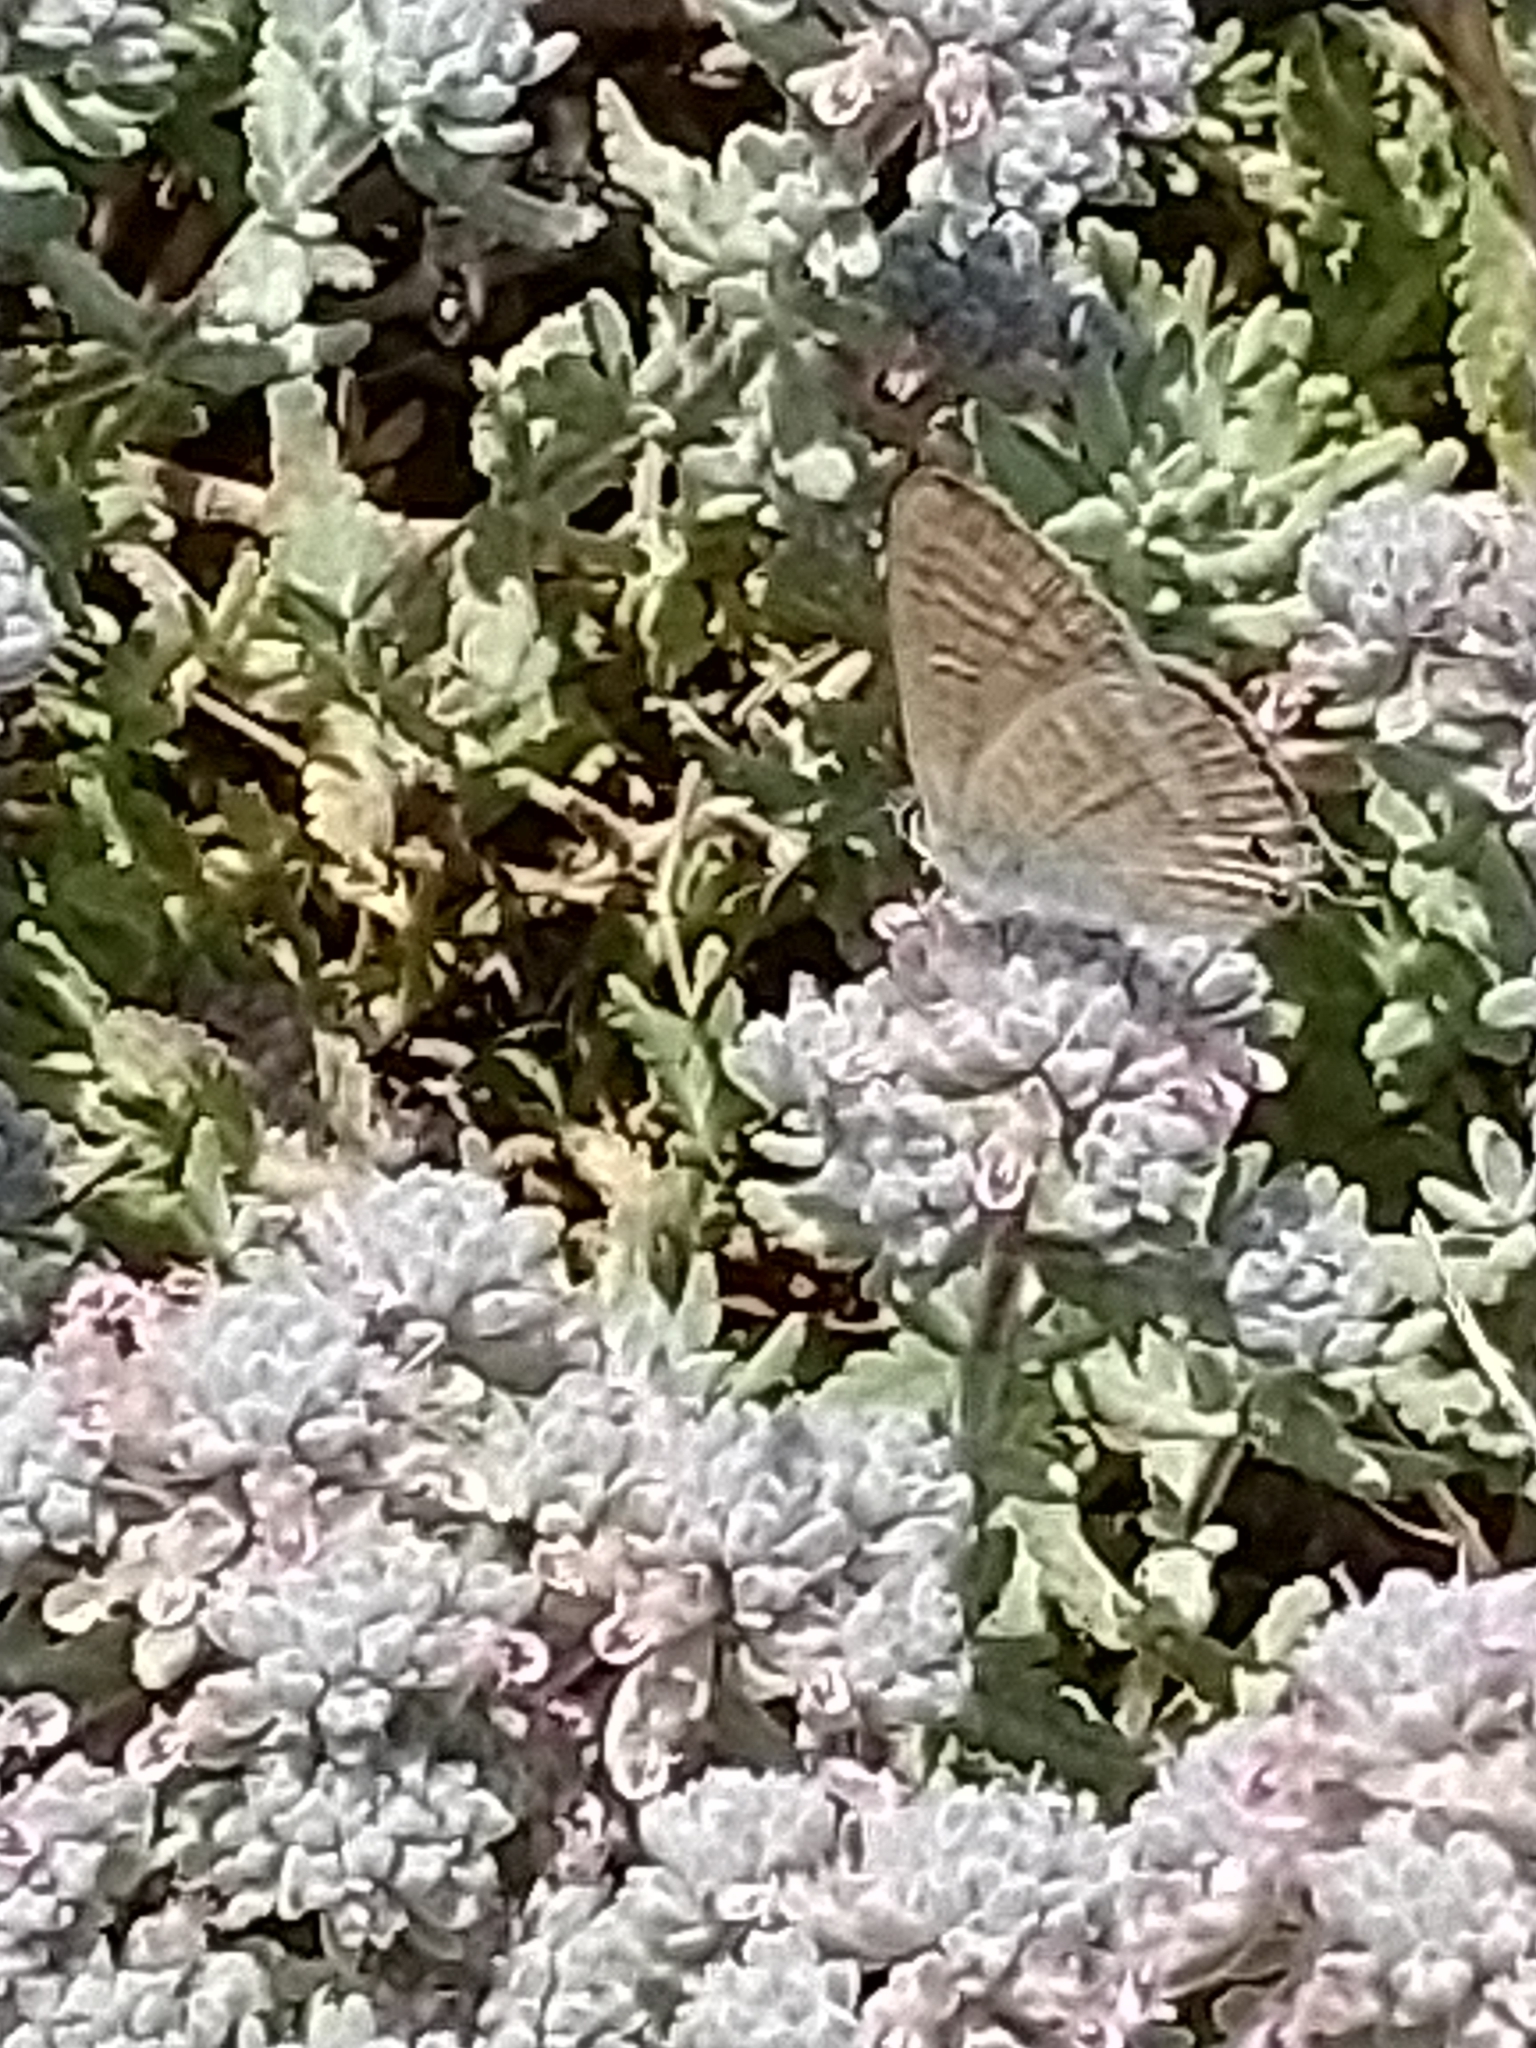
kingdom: Animalia
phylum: Arthropoda
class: Insecta
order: Lepidoptera
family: Lycaenidae
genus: Lampides
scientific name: Lampides boeticus
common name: Long-tailed blue
